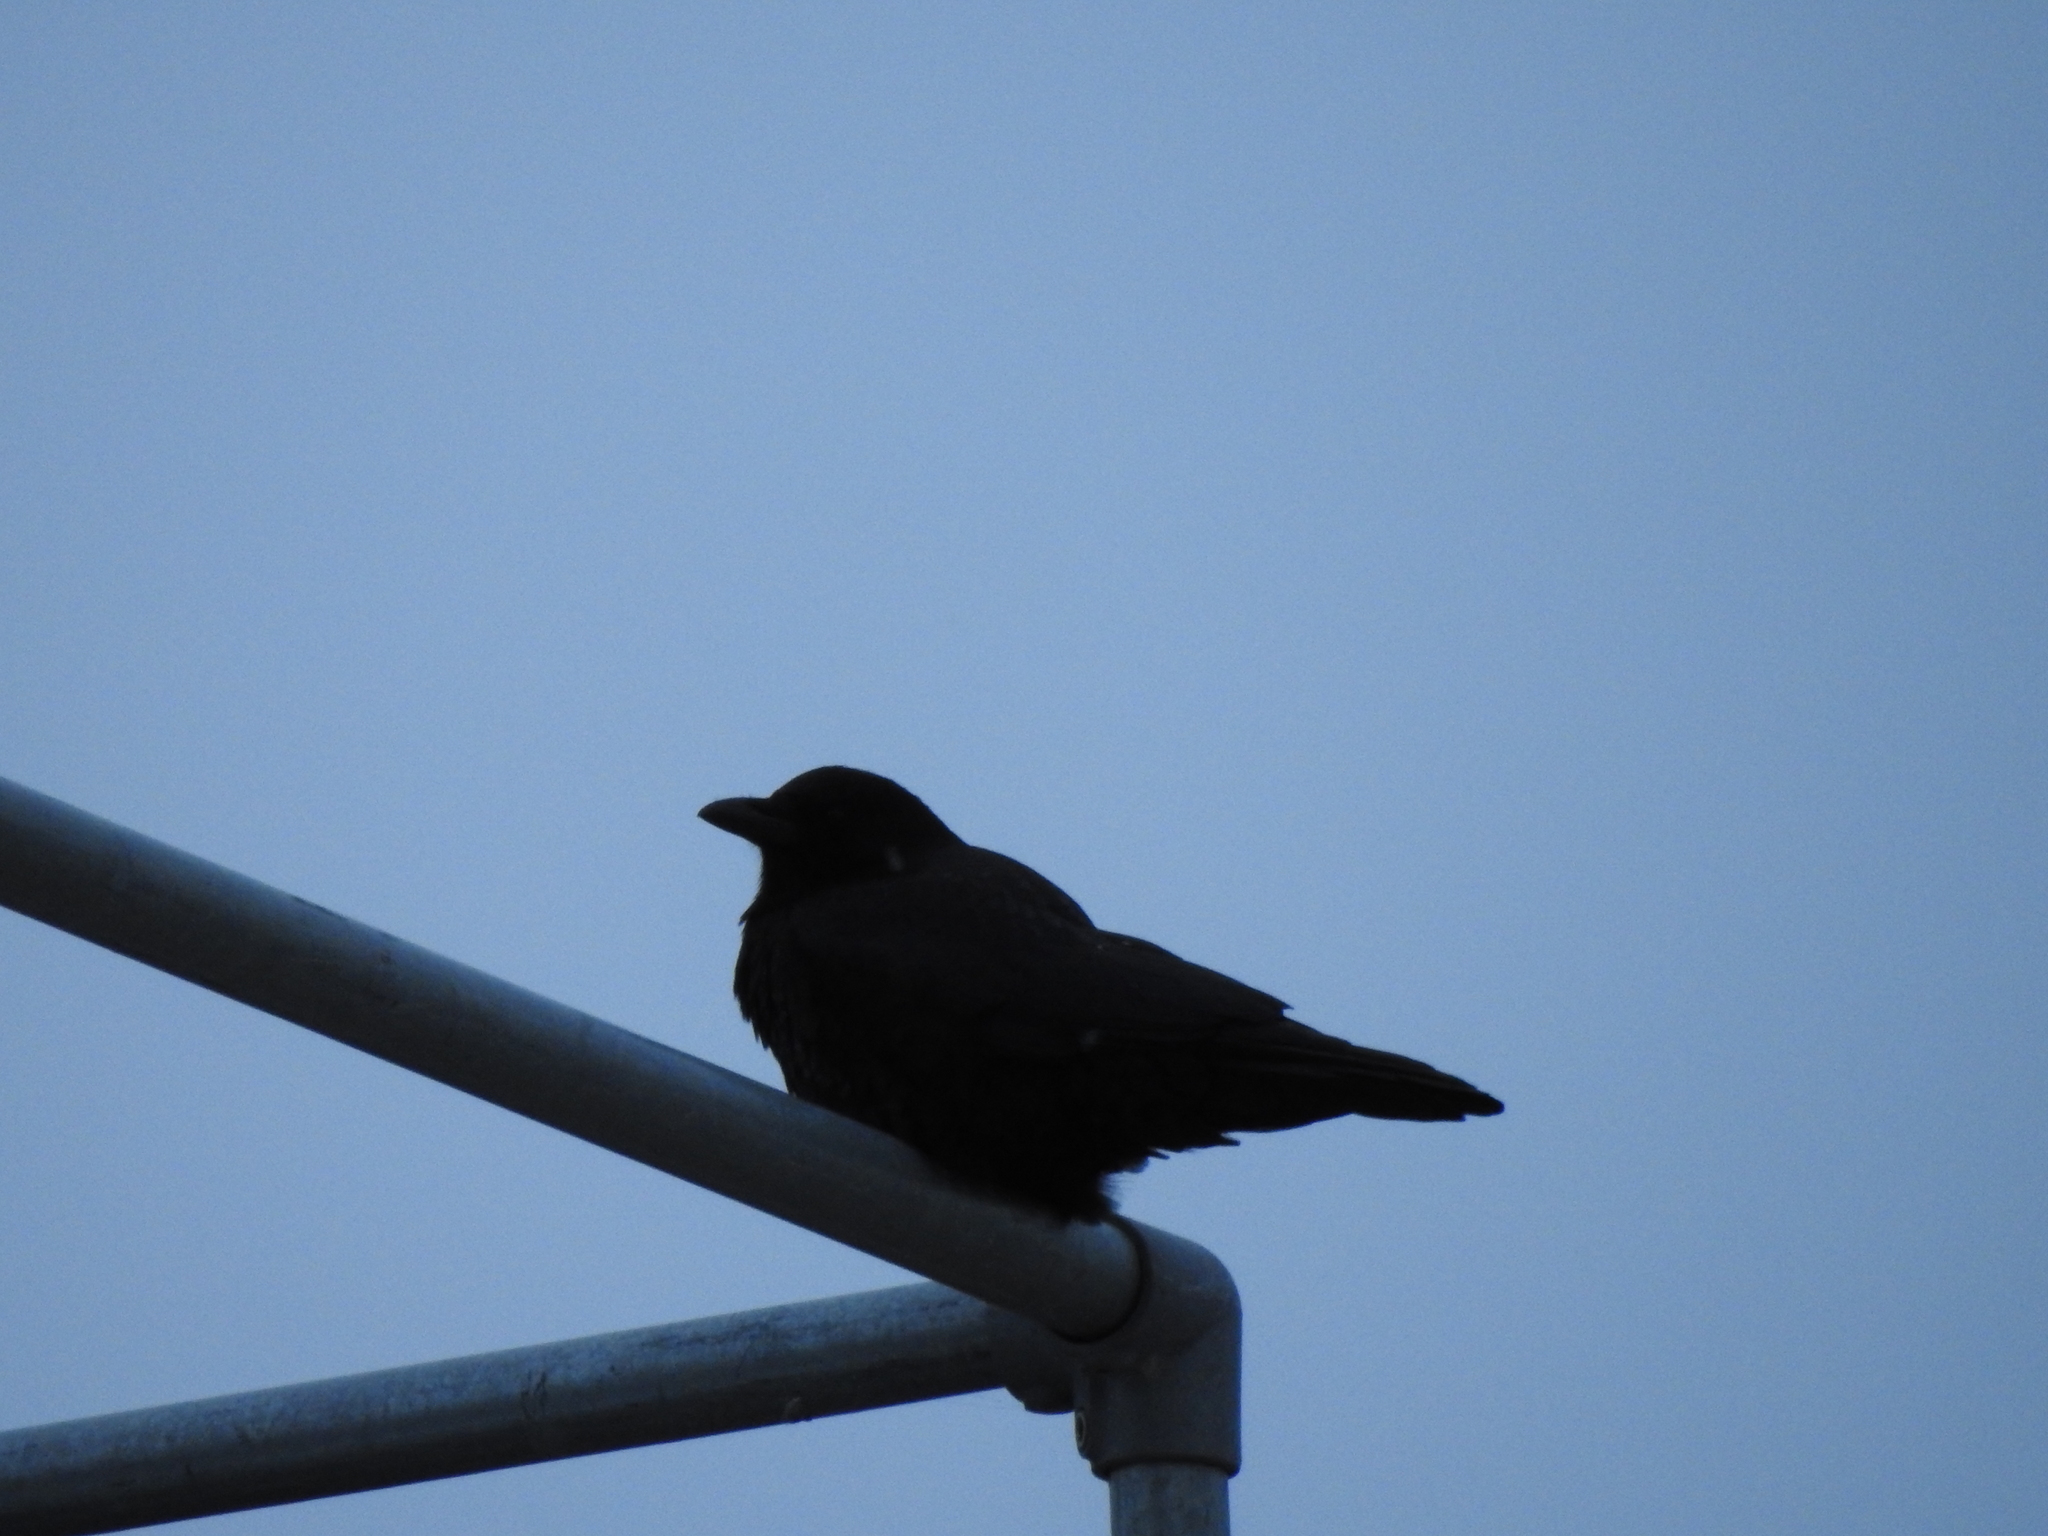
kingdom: Animalia
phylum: Chordata
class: Aves
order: Passeriformes
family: Corvidae
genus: Corvus
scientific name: Corvus brachyrhynchos
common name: American crow
